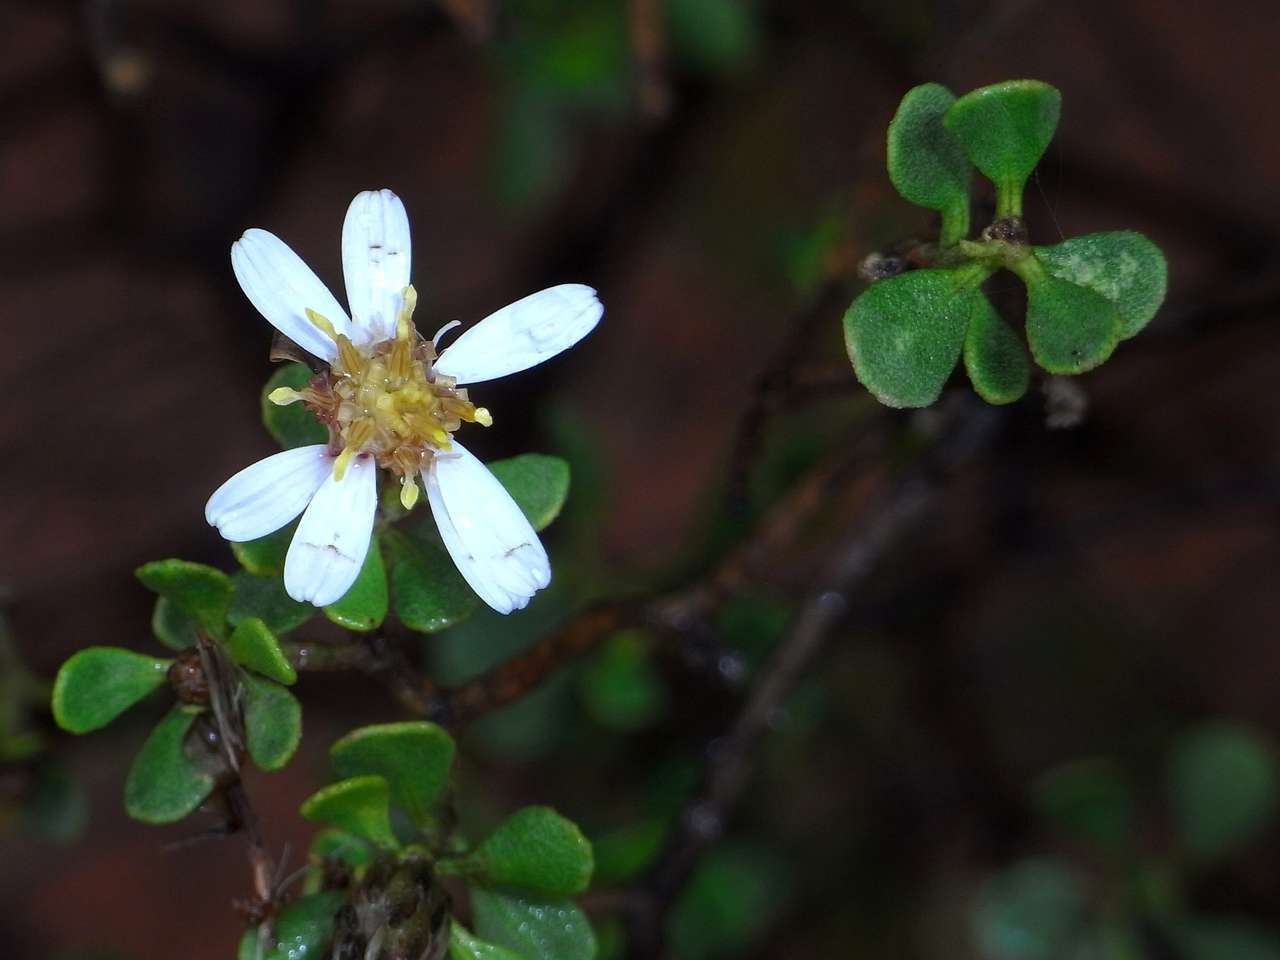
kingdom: Plantae
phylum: Tracheophyta
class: Magnoliopsida
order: Asterales
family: Asteraceae
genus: Walsholaria
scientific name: Walsholaria muelleri
